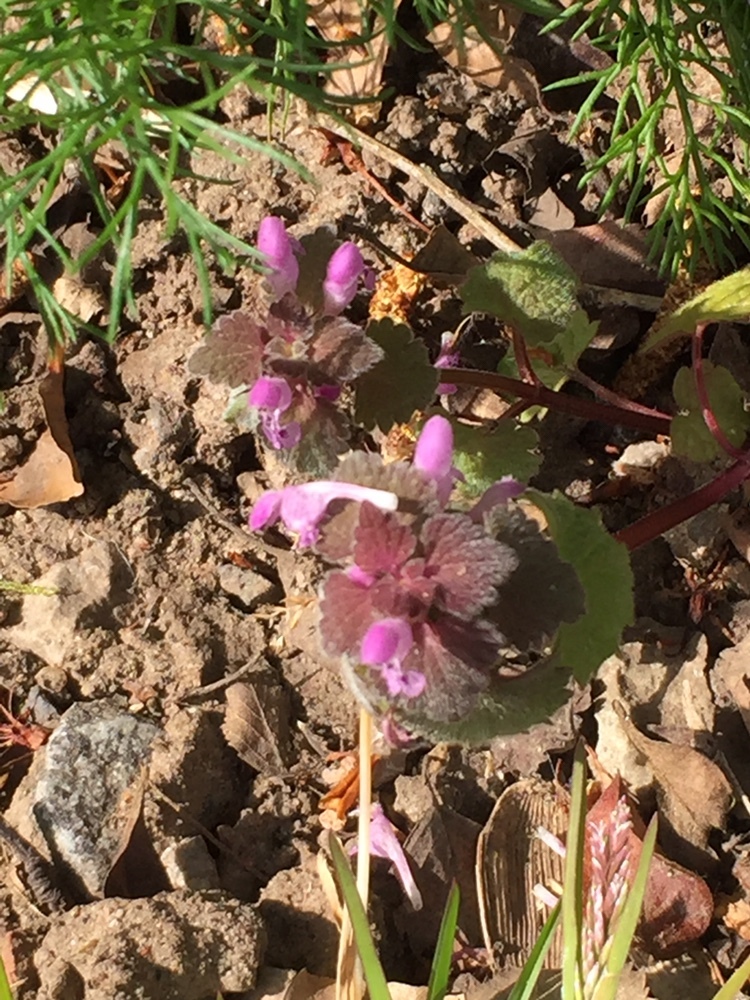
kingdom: Plantae
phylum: Tracheophyta
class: Magnoliopsida
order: Lamiales
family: Lamiaceae
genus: Lamium
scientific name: Lamium purpureum
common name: Red dead-nettle
